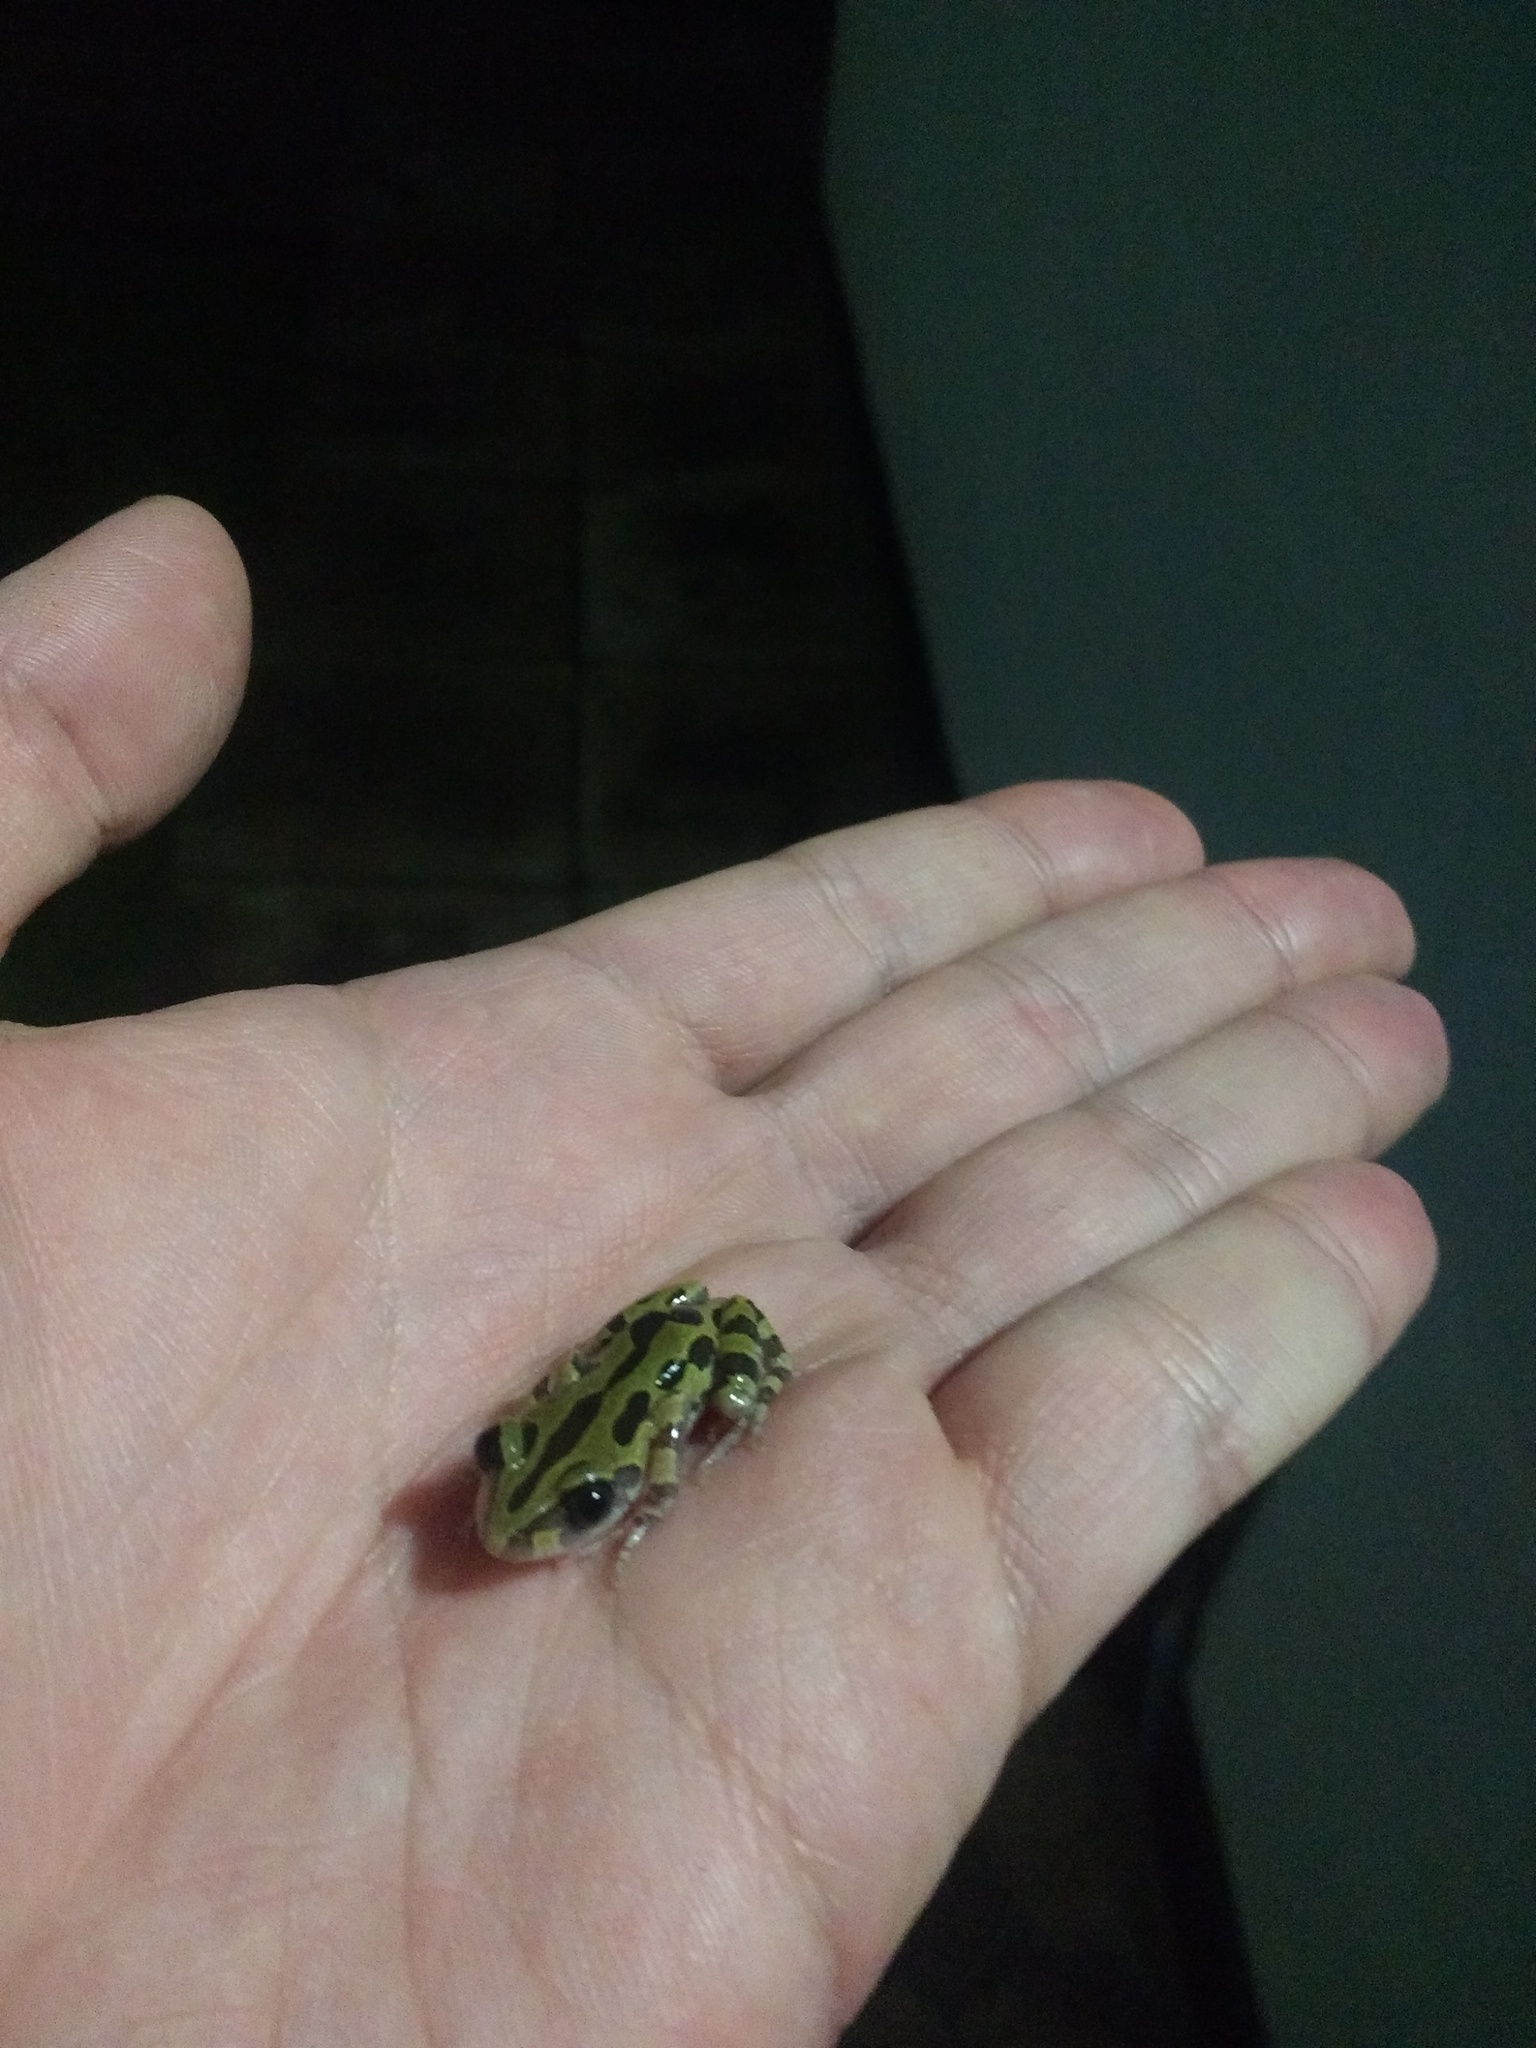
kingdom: Animalia
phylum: Chordata
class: Amphibia
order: Anura
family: Hyperoliidae
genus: Kassina
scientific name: Kassina senegalensis
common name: Senegal land frog
